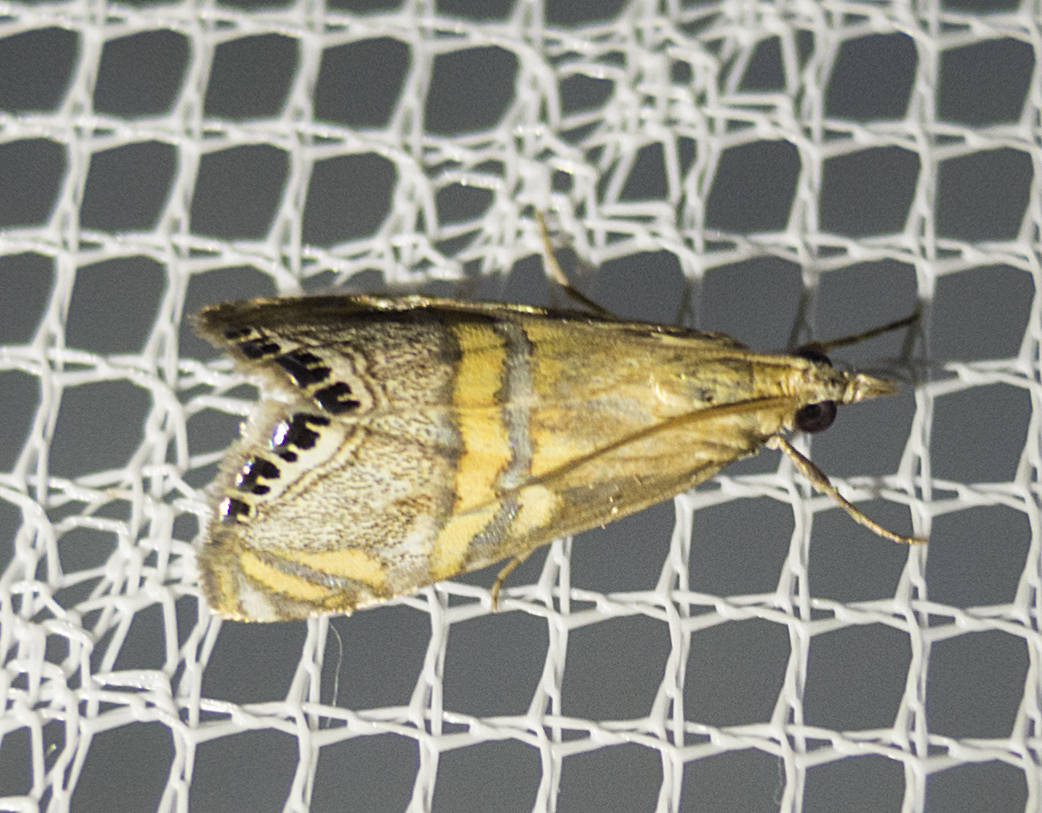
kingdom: Animalia
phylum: Arthropoda
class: Insecta
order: Lepidoptera
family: Crambidae
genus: Euchromius
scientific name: Euchromius bella
